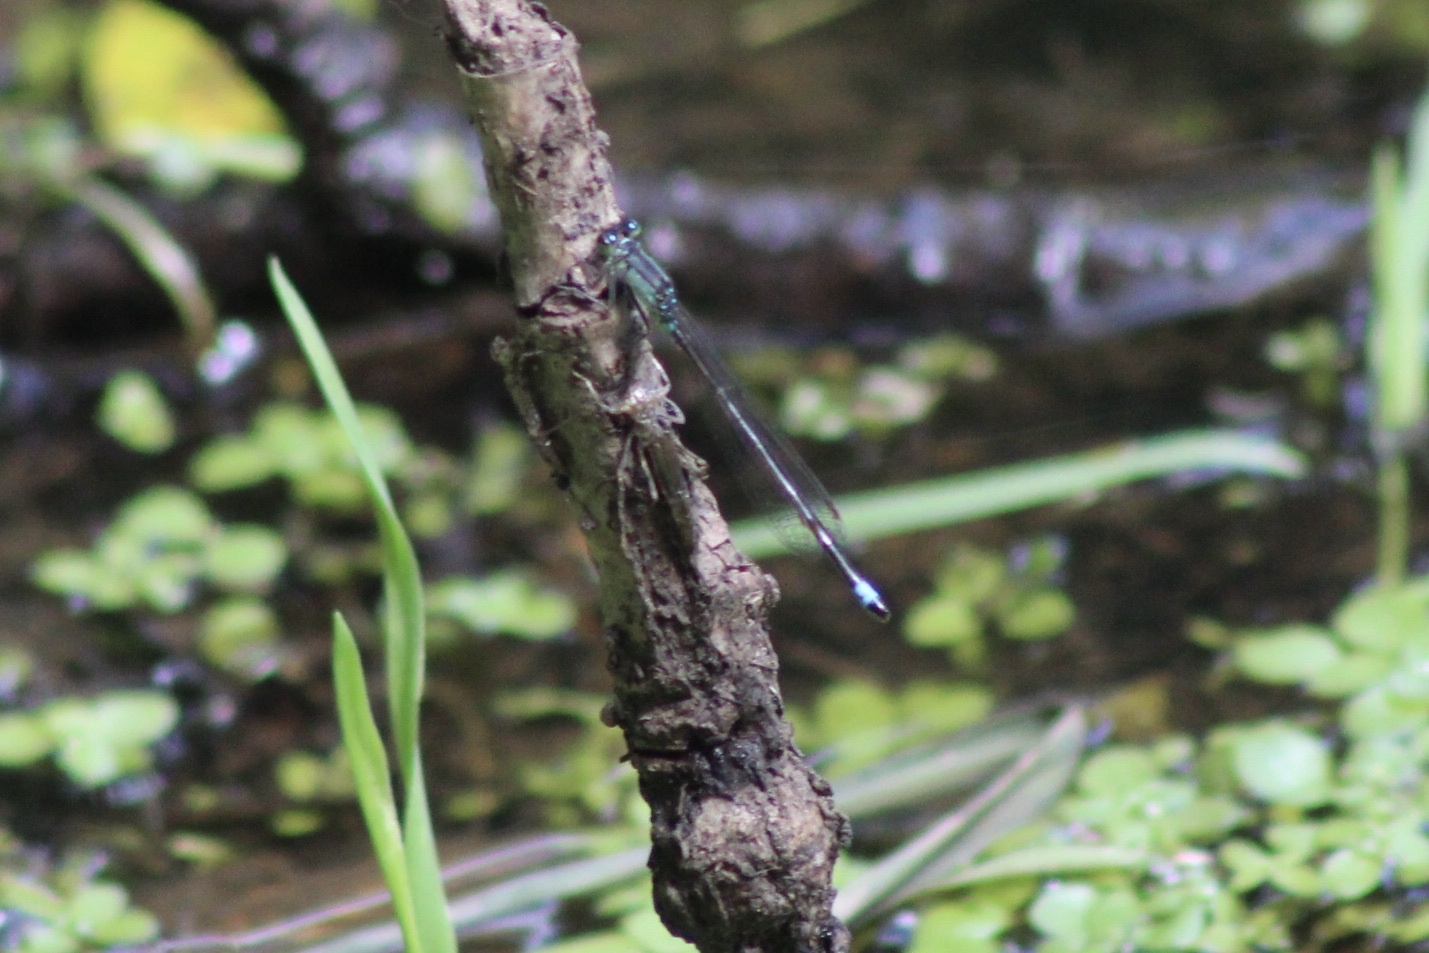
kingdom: Animalia
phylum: Arthropoda
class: Insecta
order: Odonata
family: Coenagrionidae
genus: Ischnura
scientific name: Ischnura cervula
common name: Pacific forktail
